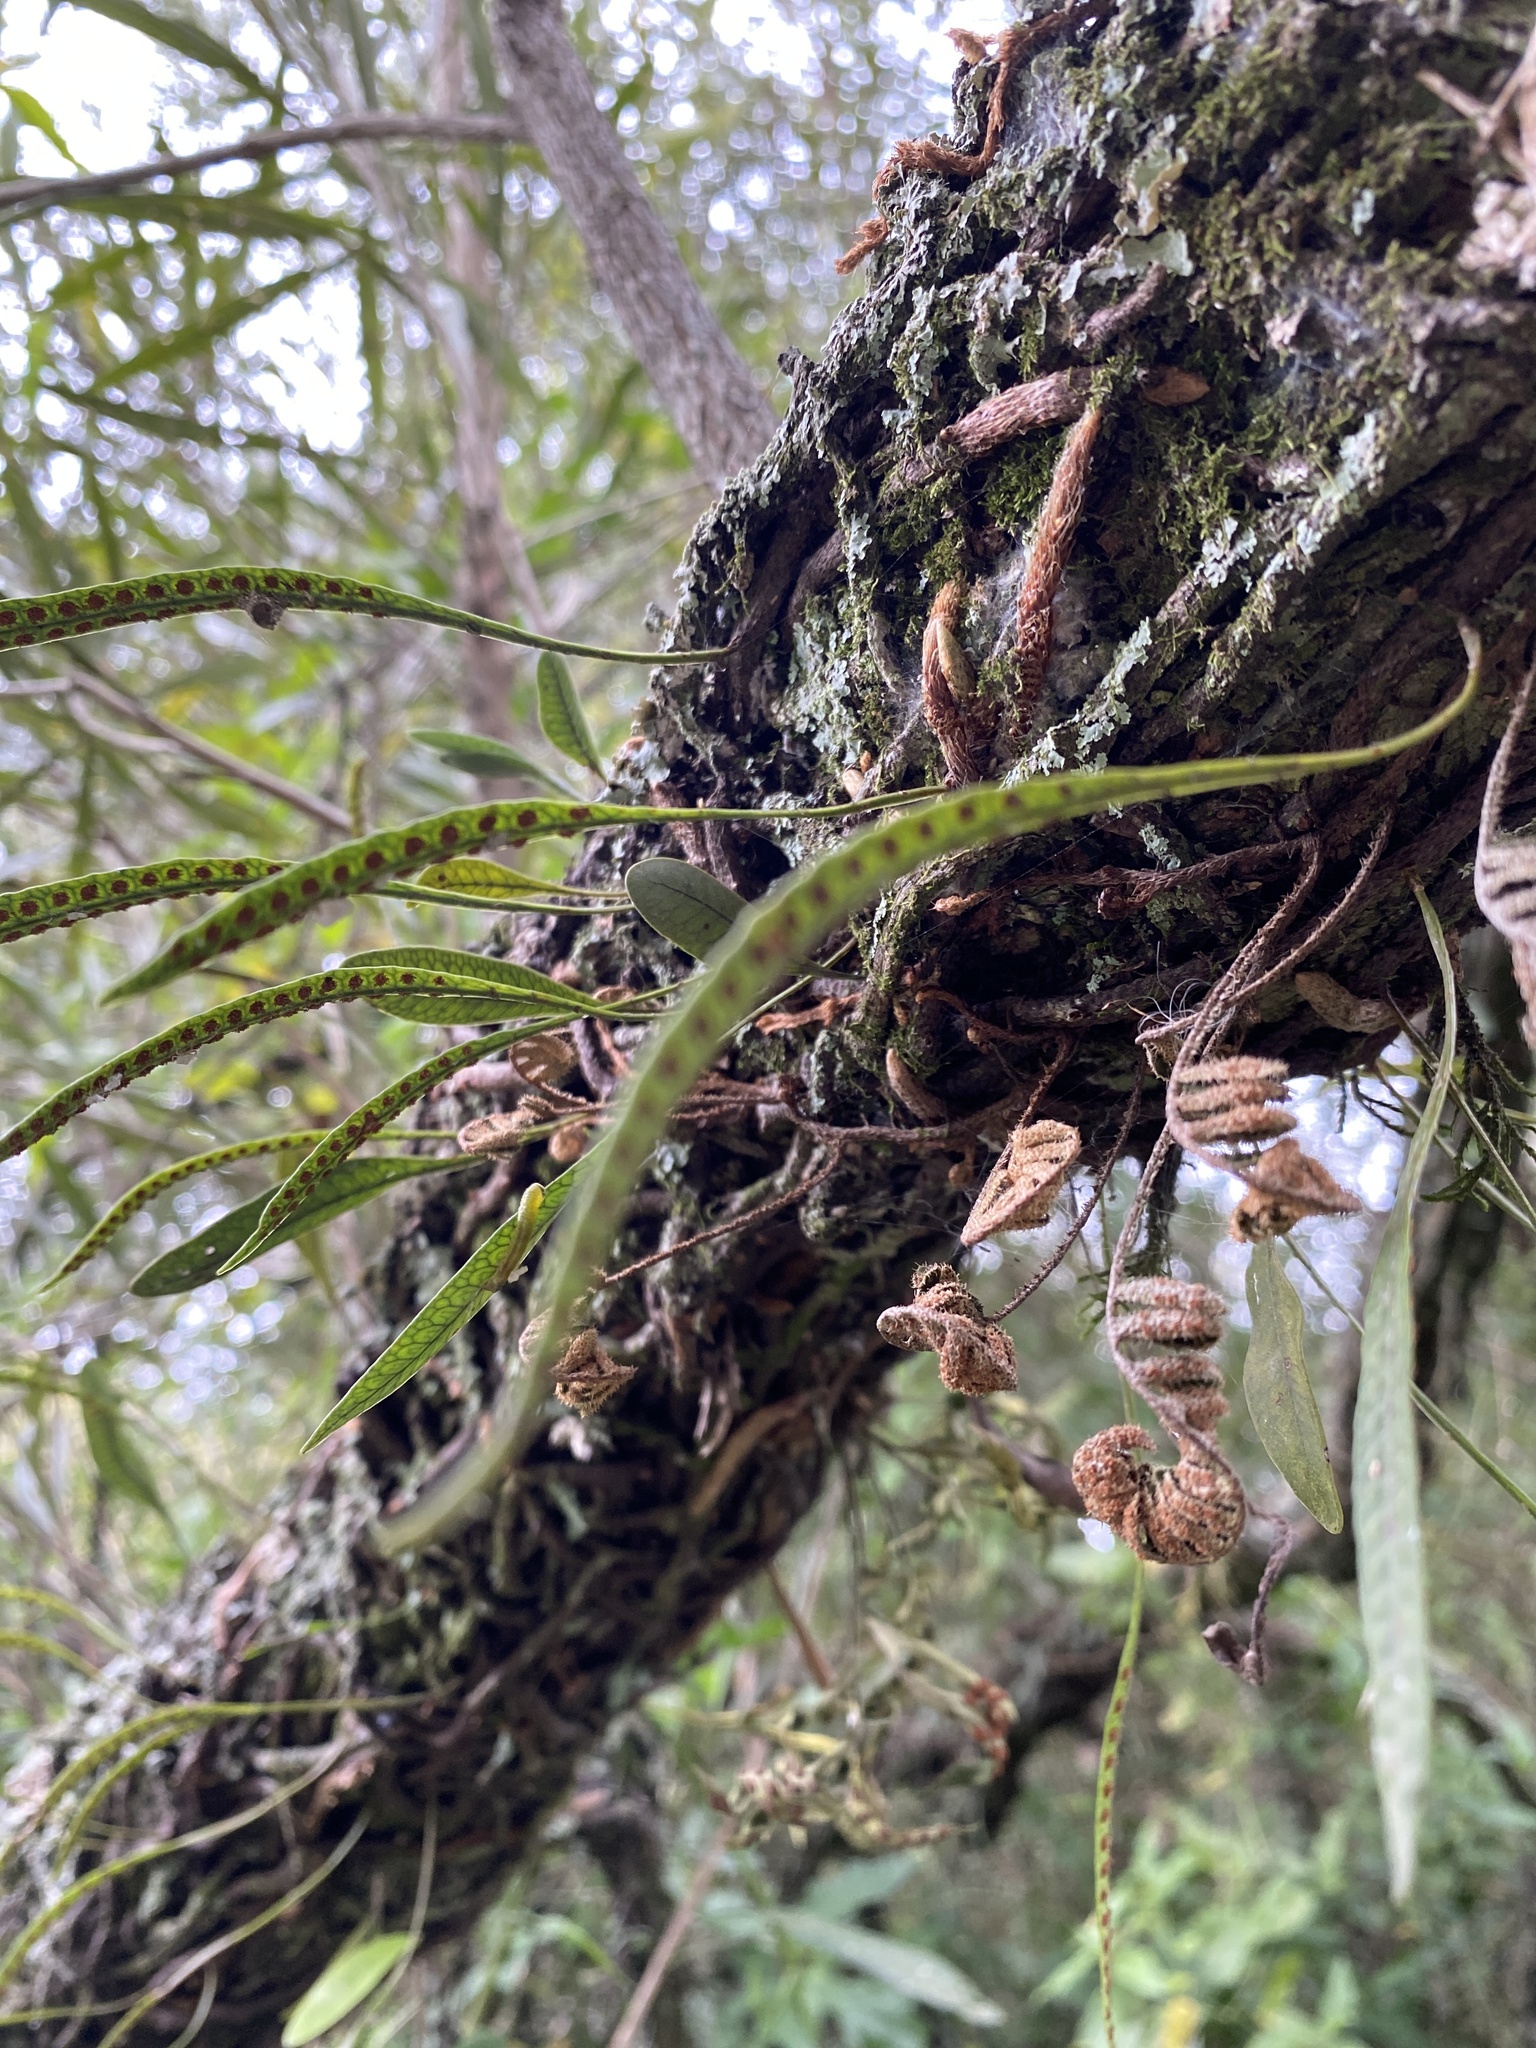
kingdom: Plantae
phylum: Tracheophyta
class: Polypodiopsida
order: Polypodiales
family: Polypodiaceae
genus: Microgramma
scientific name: Microgramma squamulosa
